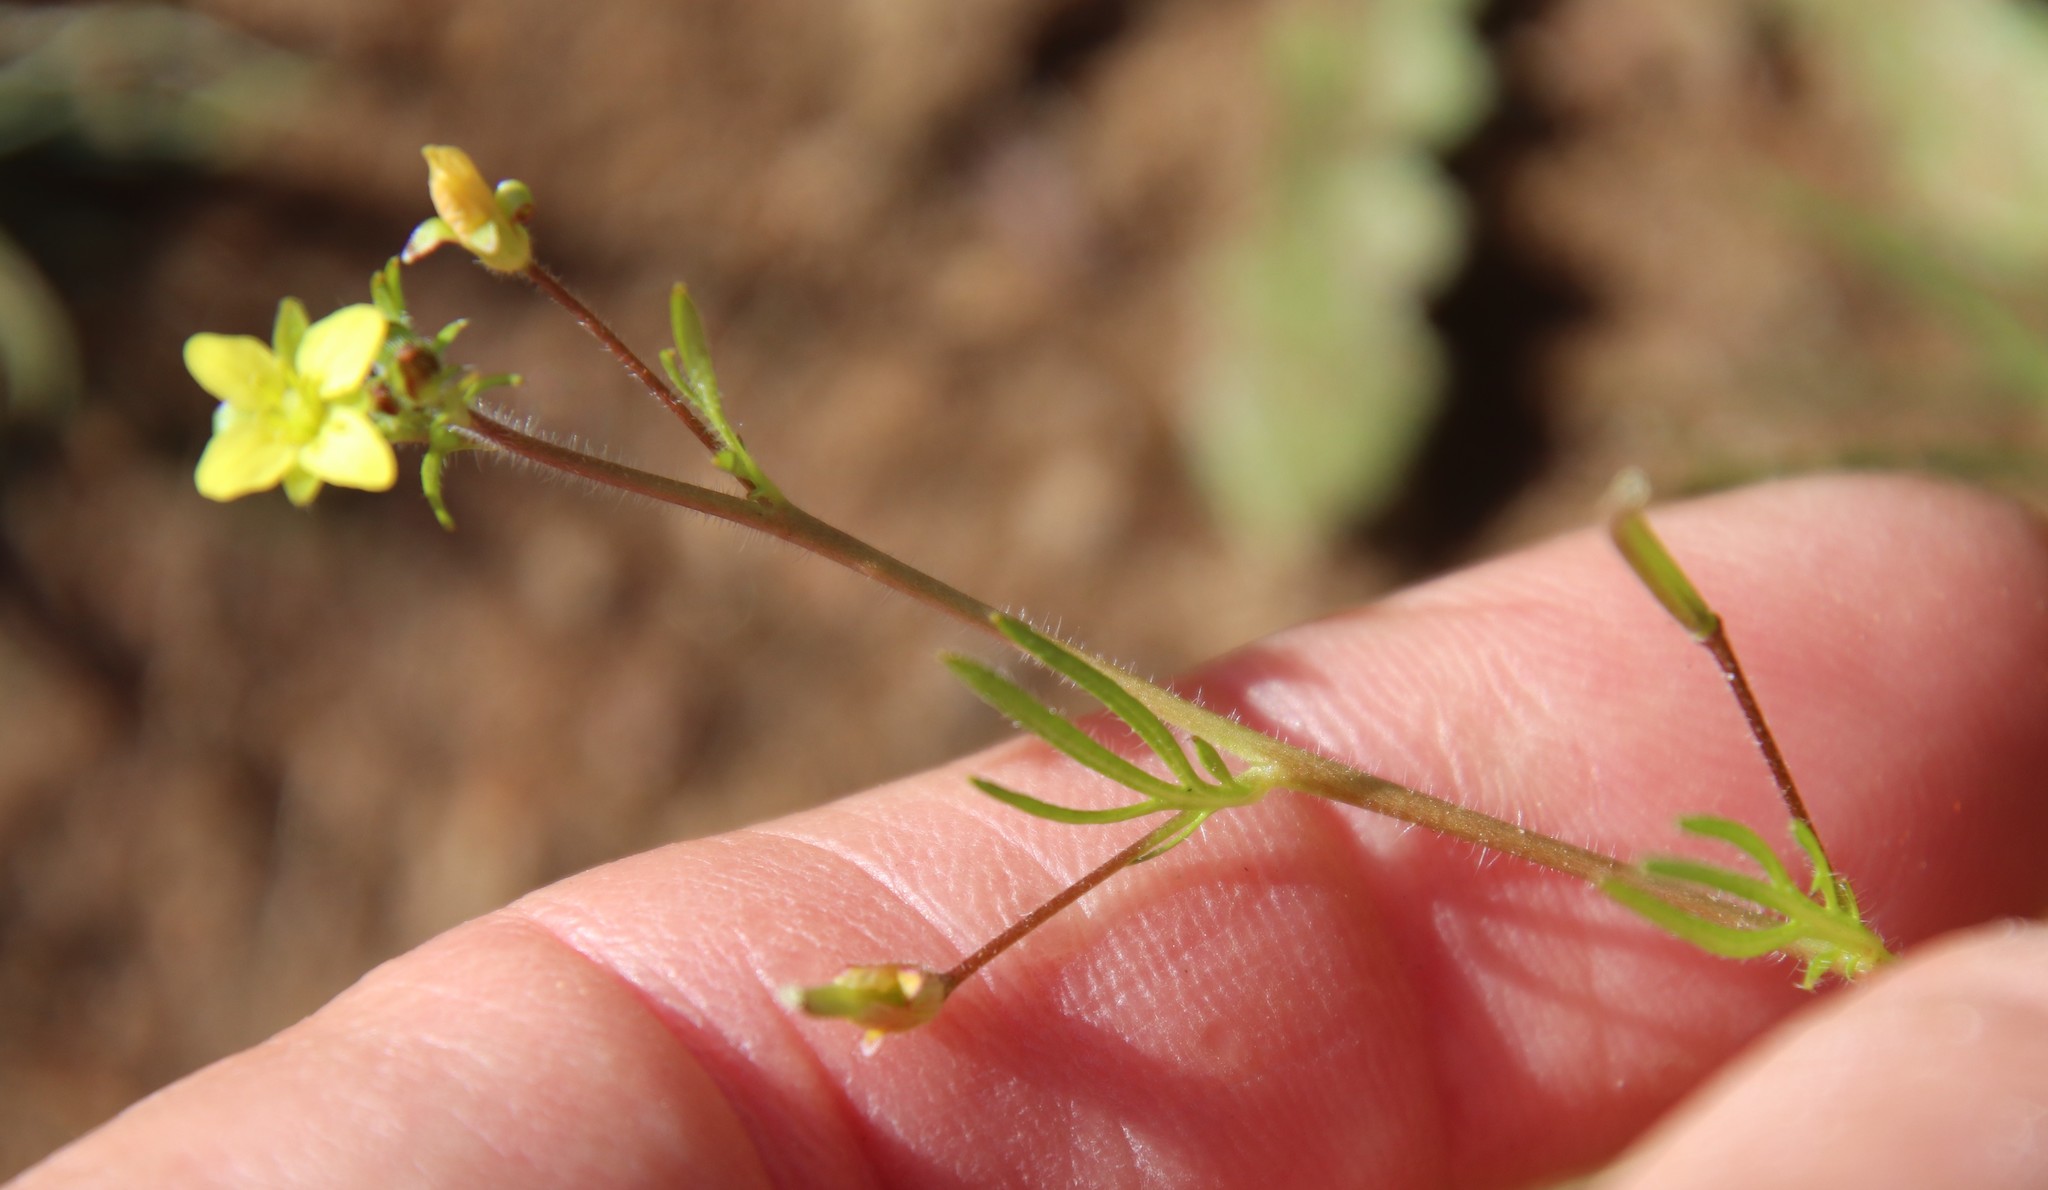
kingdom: Plantae
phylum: Tracheophyta
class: Magnoliopsida
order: Brassicales
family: Brassicaceae
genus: Tropidocarpum
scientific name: Tropidocarpum gracile
